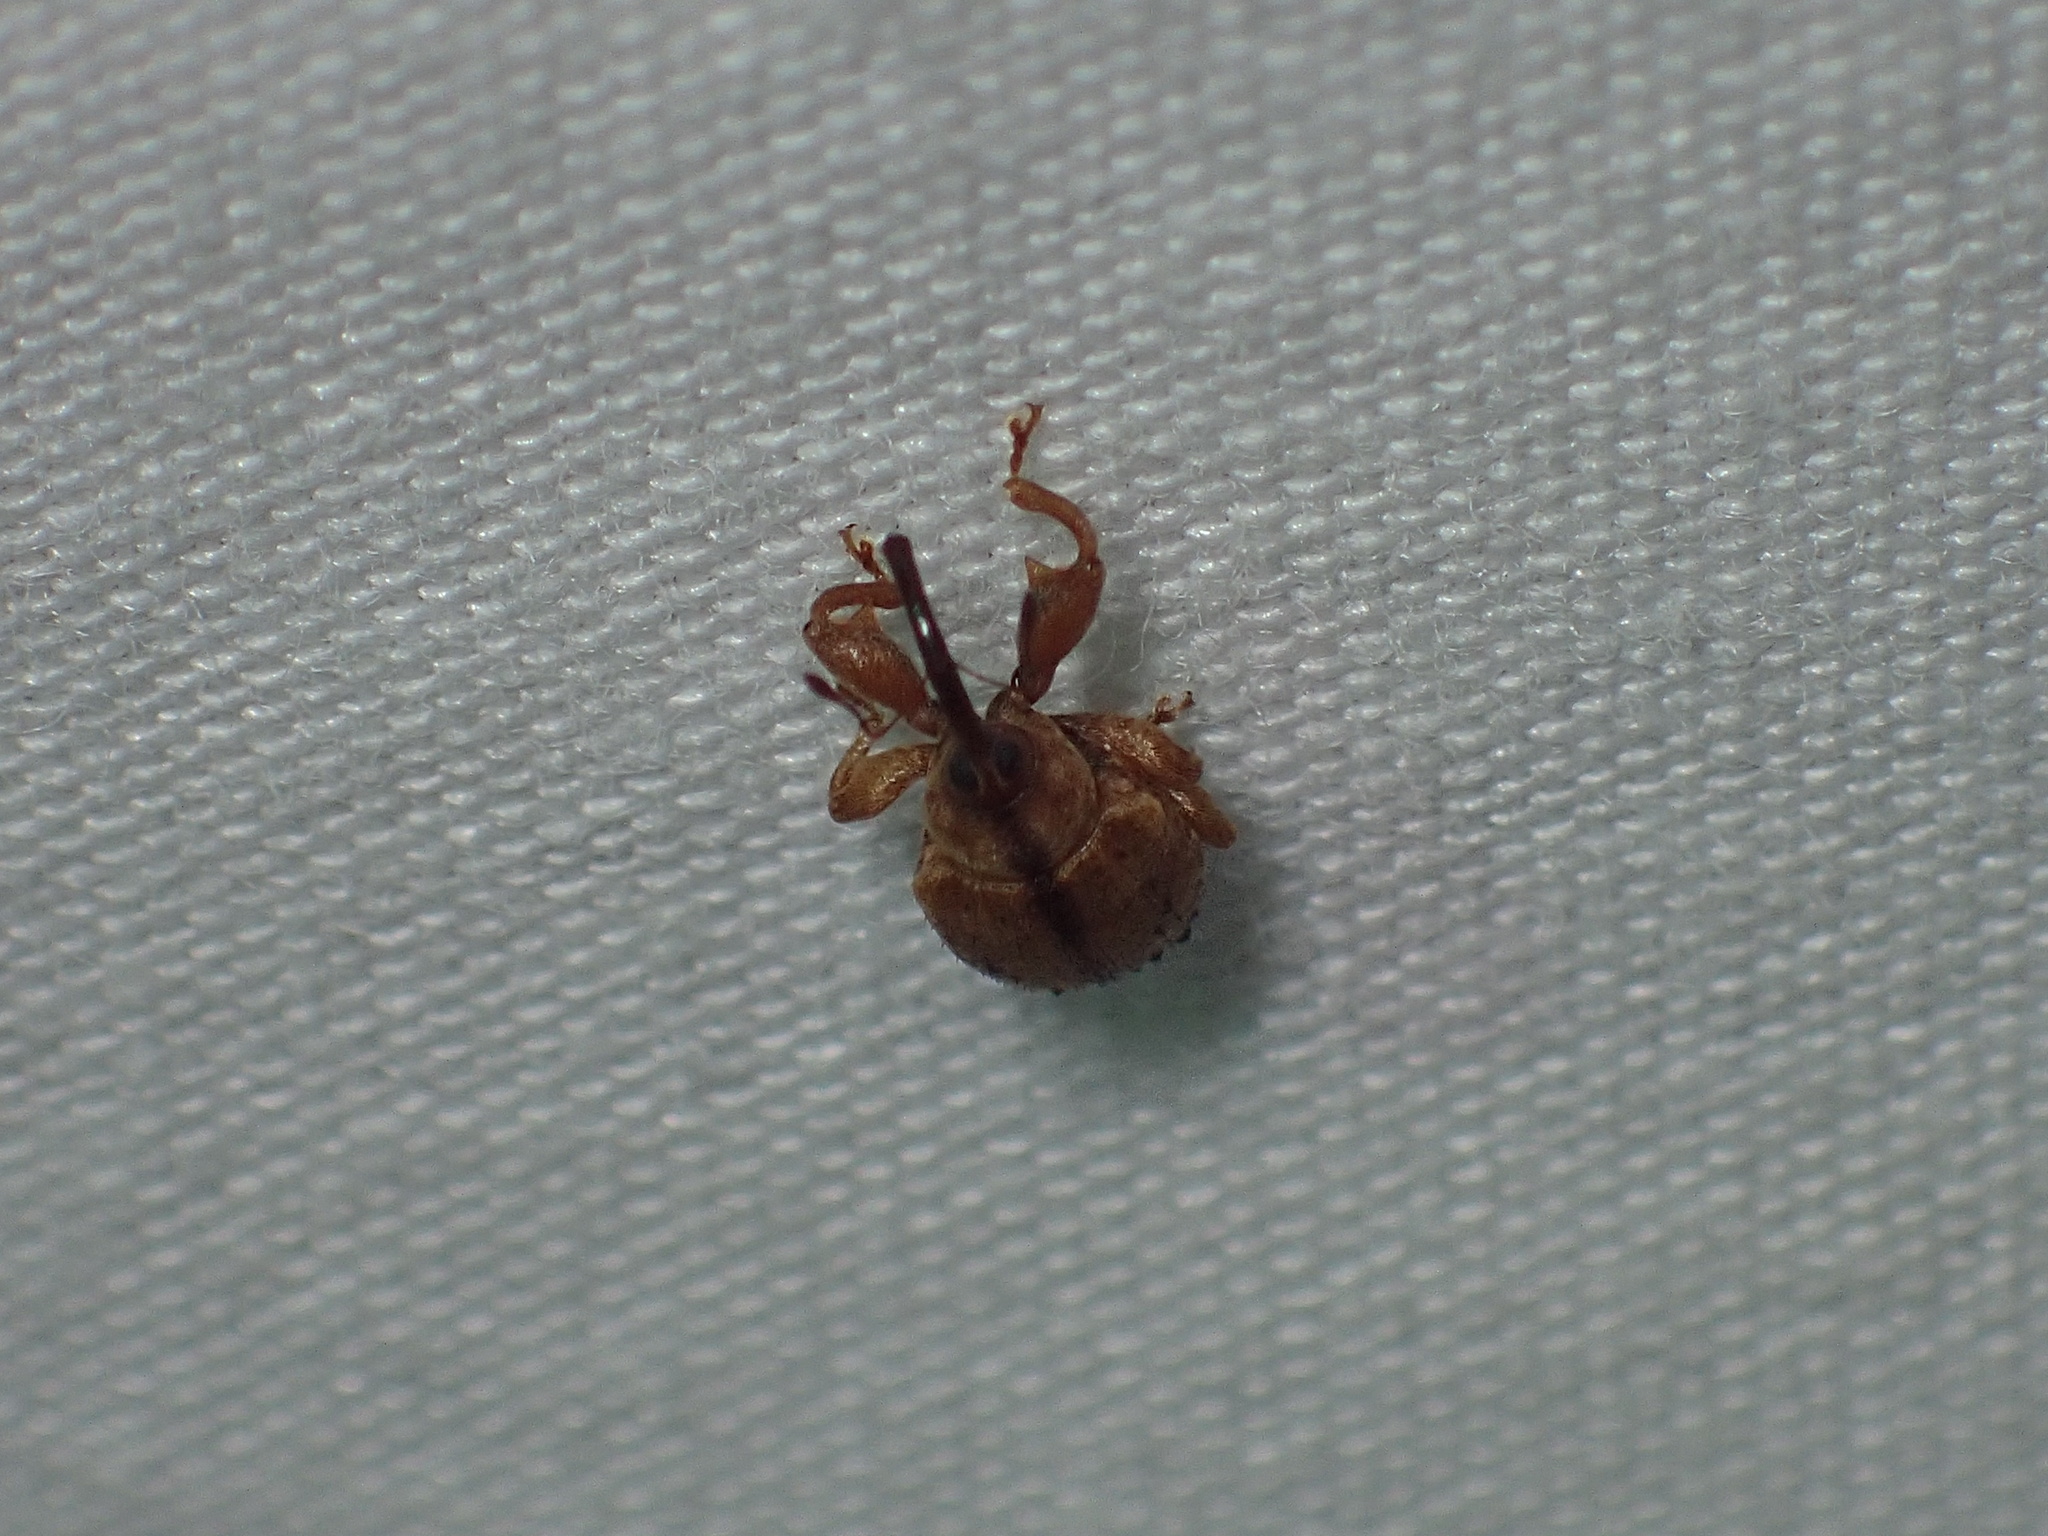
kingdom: Animalia
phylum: Arthropoda
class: Insecta
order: Coleoptera
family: Curculionidae
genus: Ochyromera
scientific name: Ochyromera ligustri
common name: Weevil
